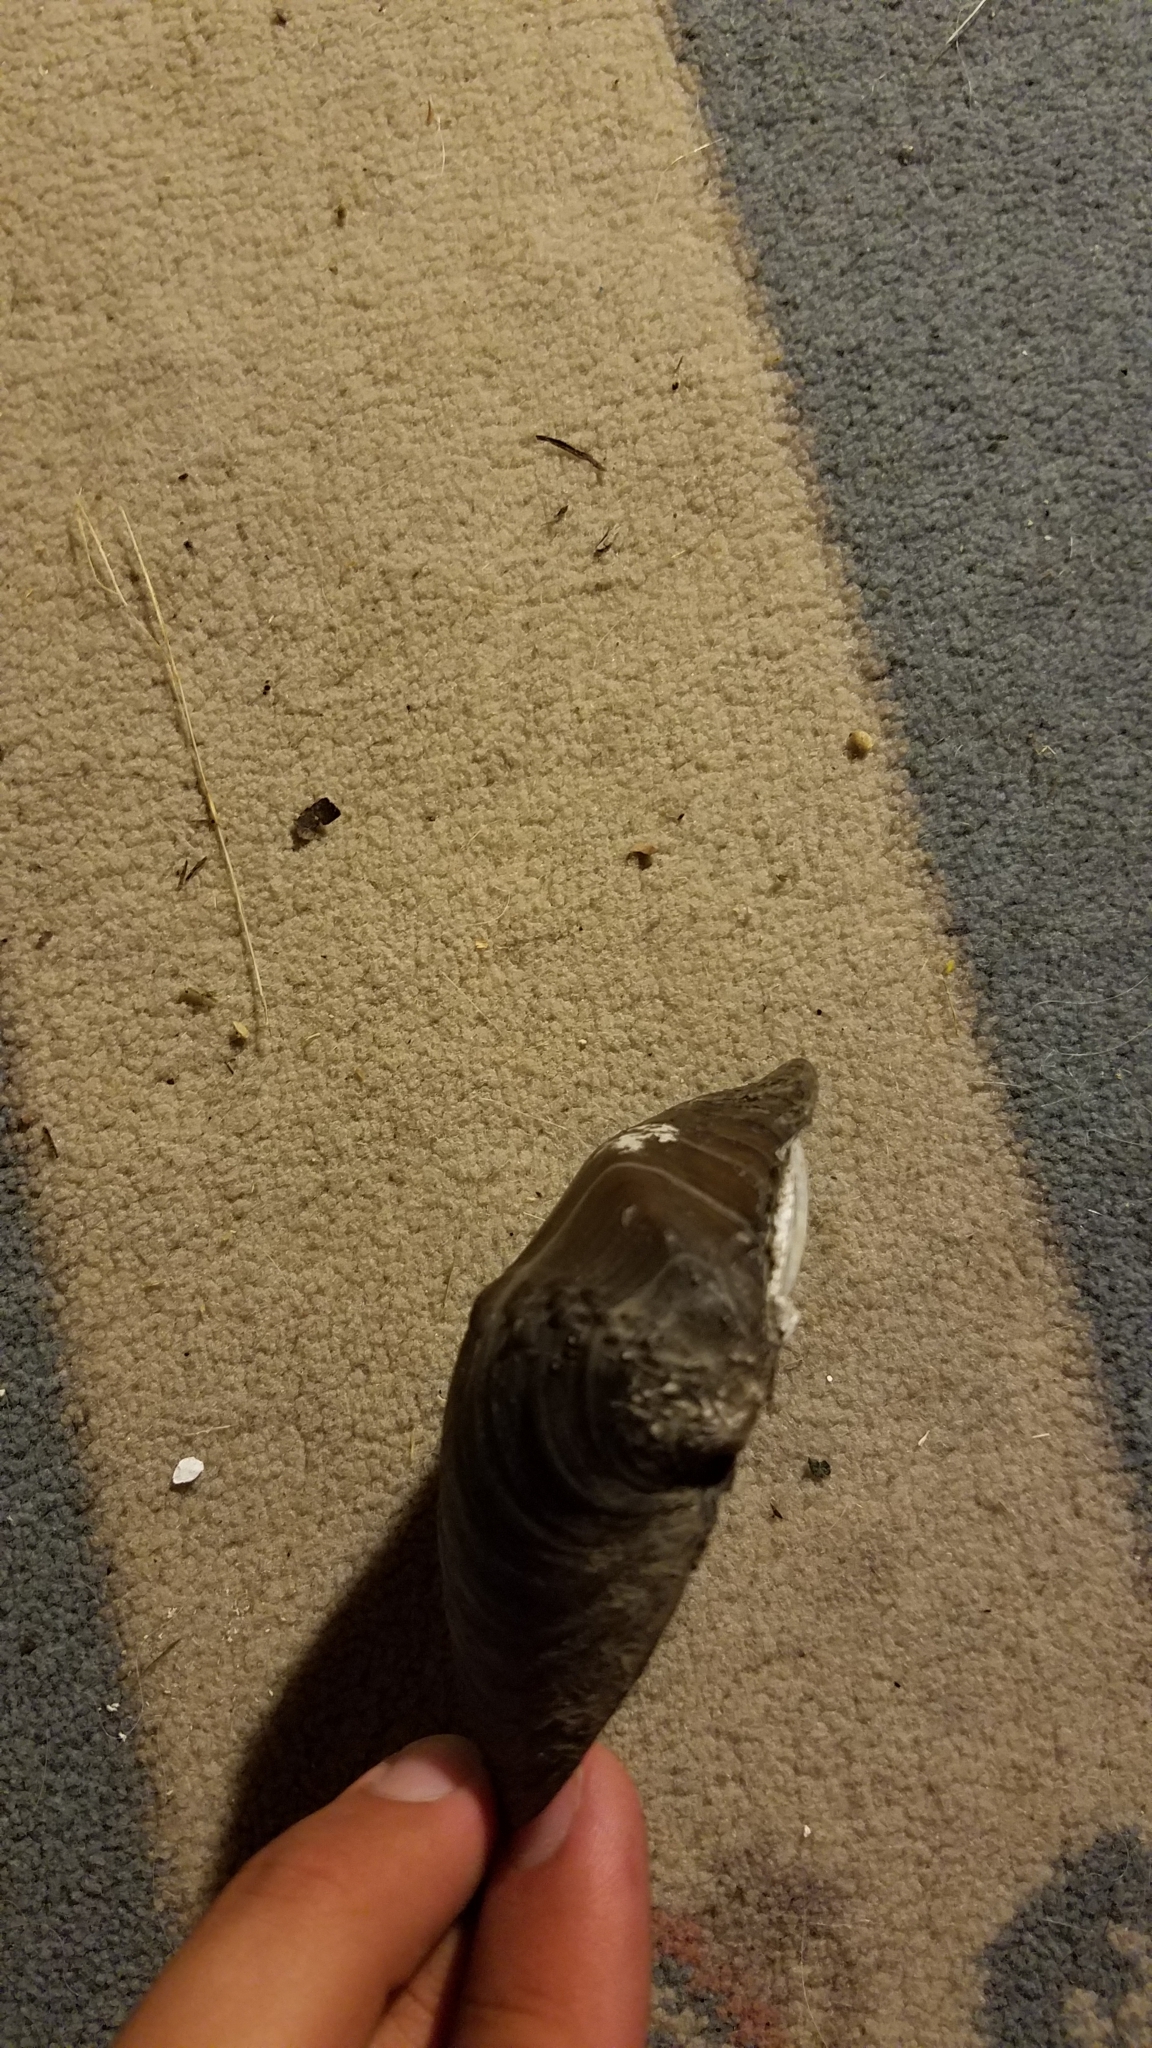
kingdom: Animalia
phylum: Mollusca
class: Bivalvia
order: Unionida
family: Unionidae
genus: Quadrula
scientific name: Quadrula quadrula
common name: Mapleleaf
